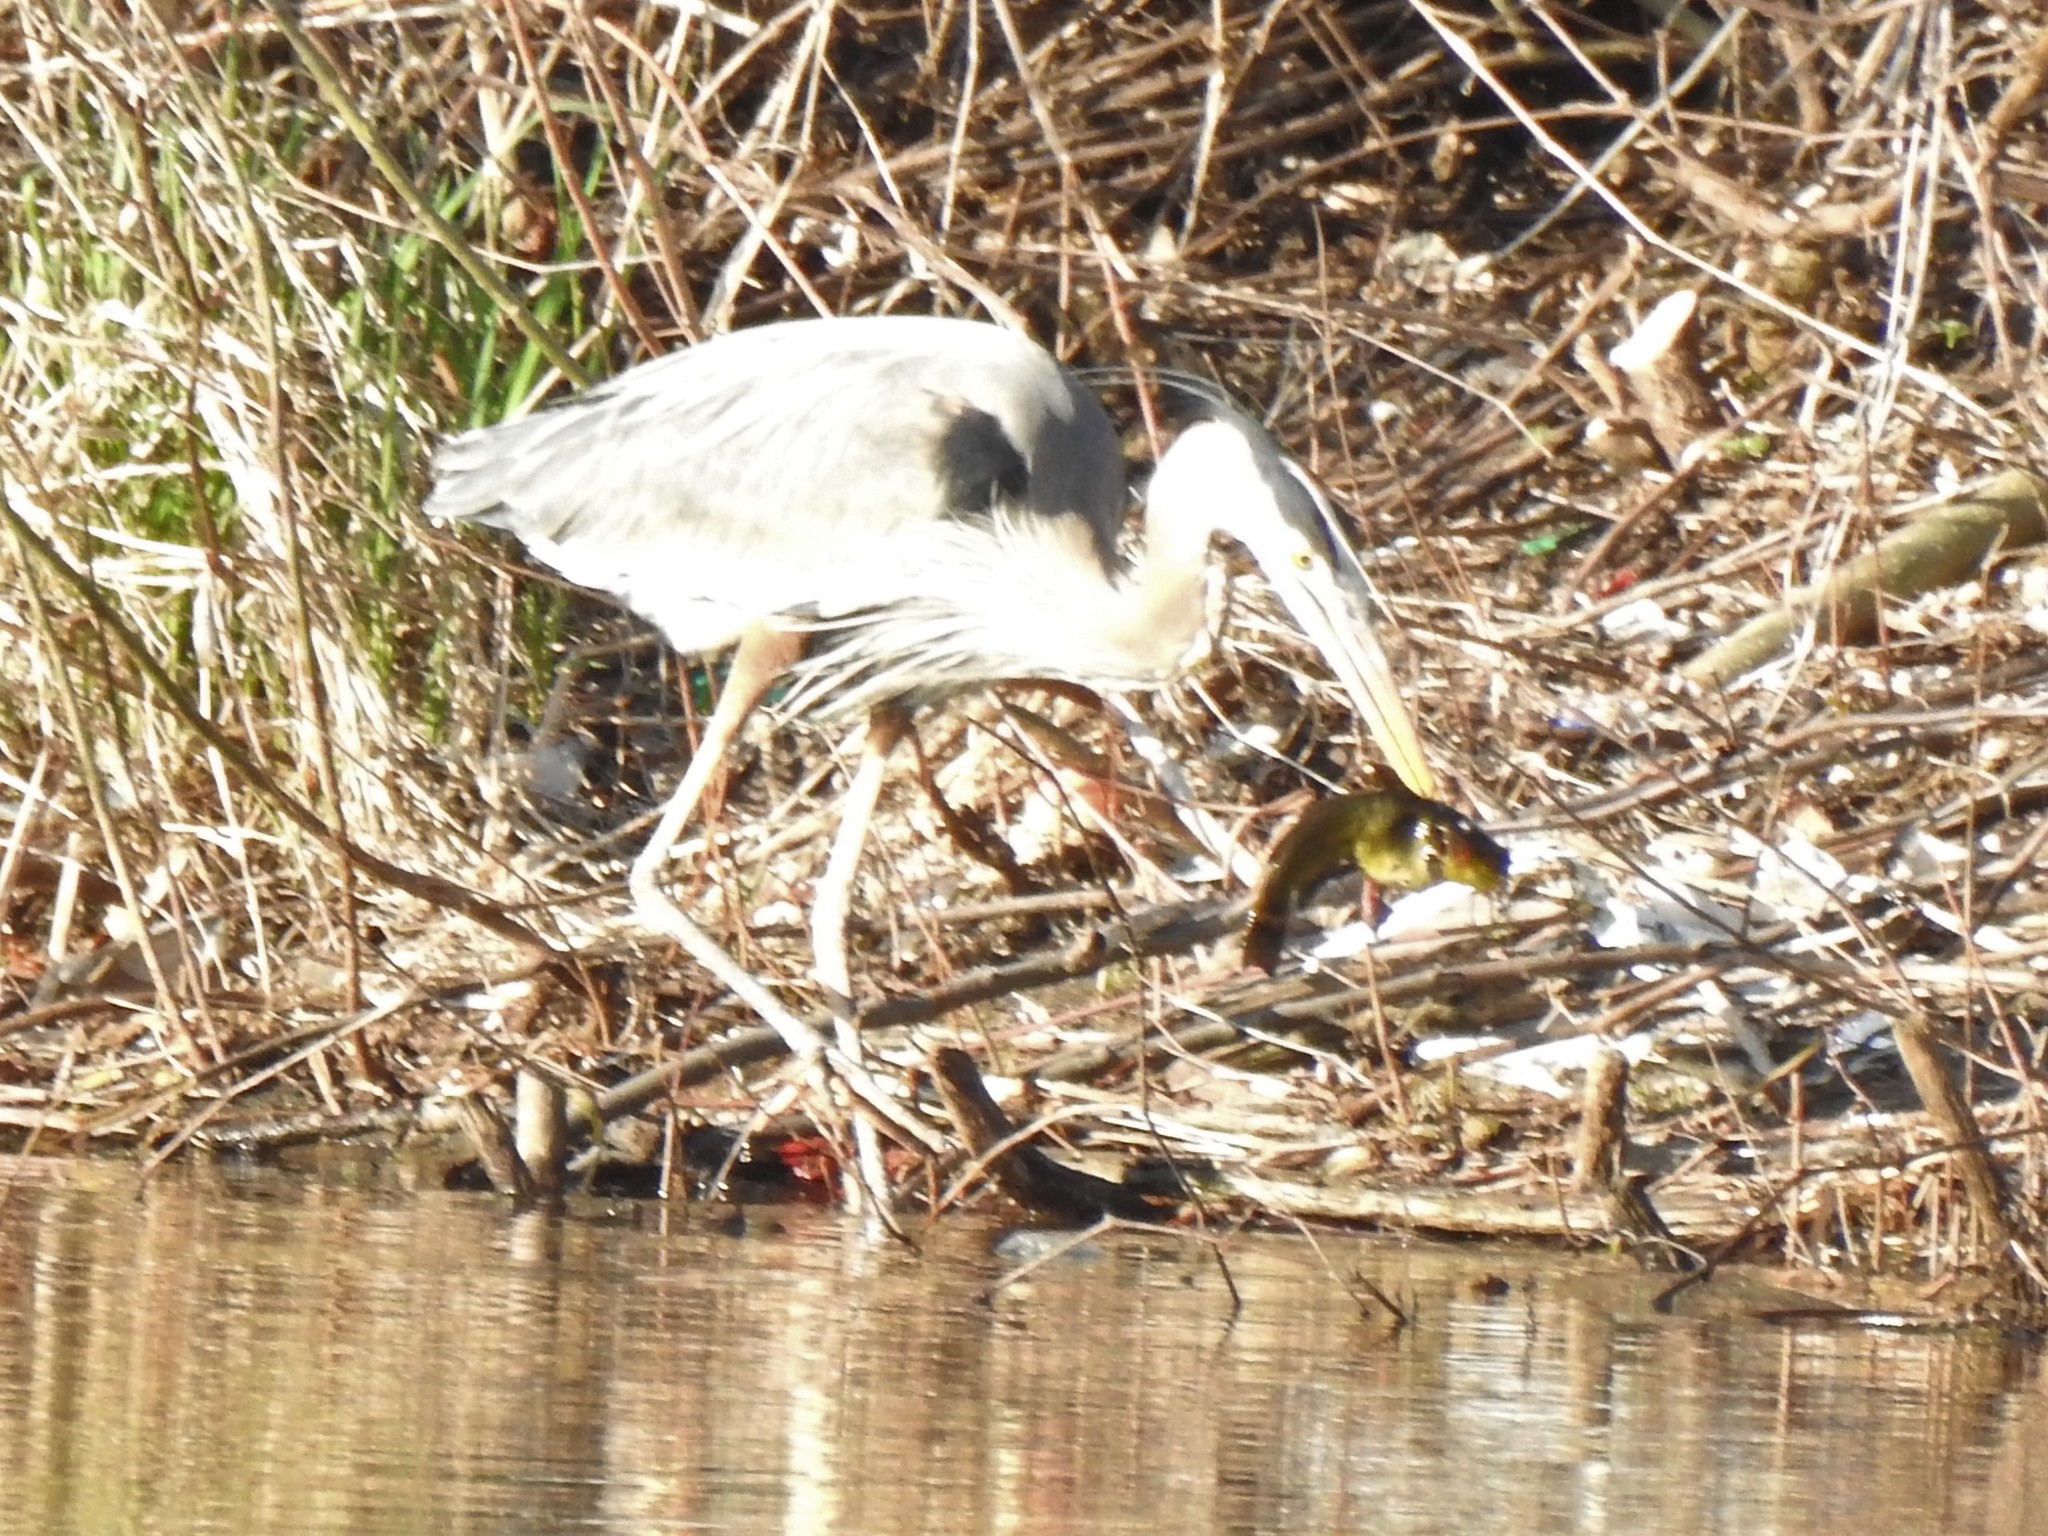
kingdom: Animalia
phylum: Chordata
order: Siluriformes
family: Ictaluridae
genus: Ameiurus
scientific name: Ameiurus melas
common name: Black bullhead
